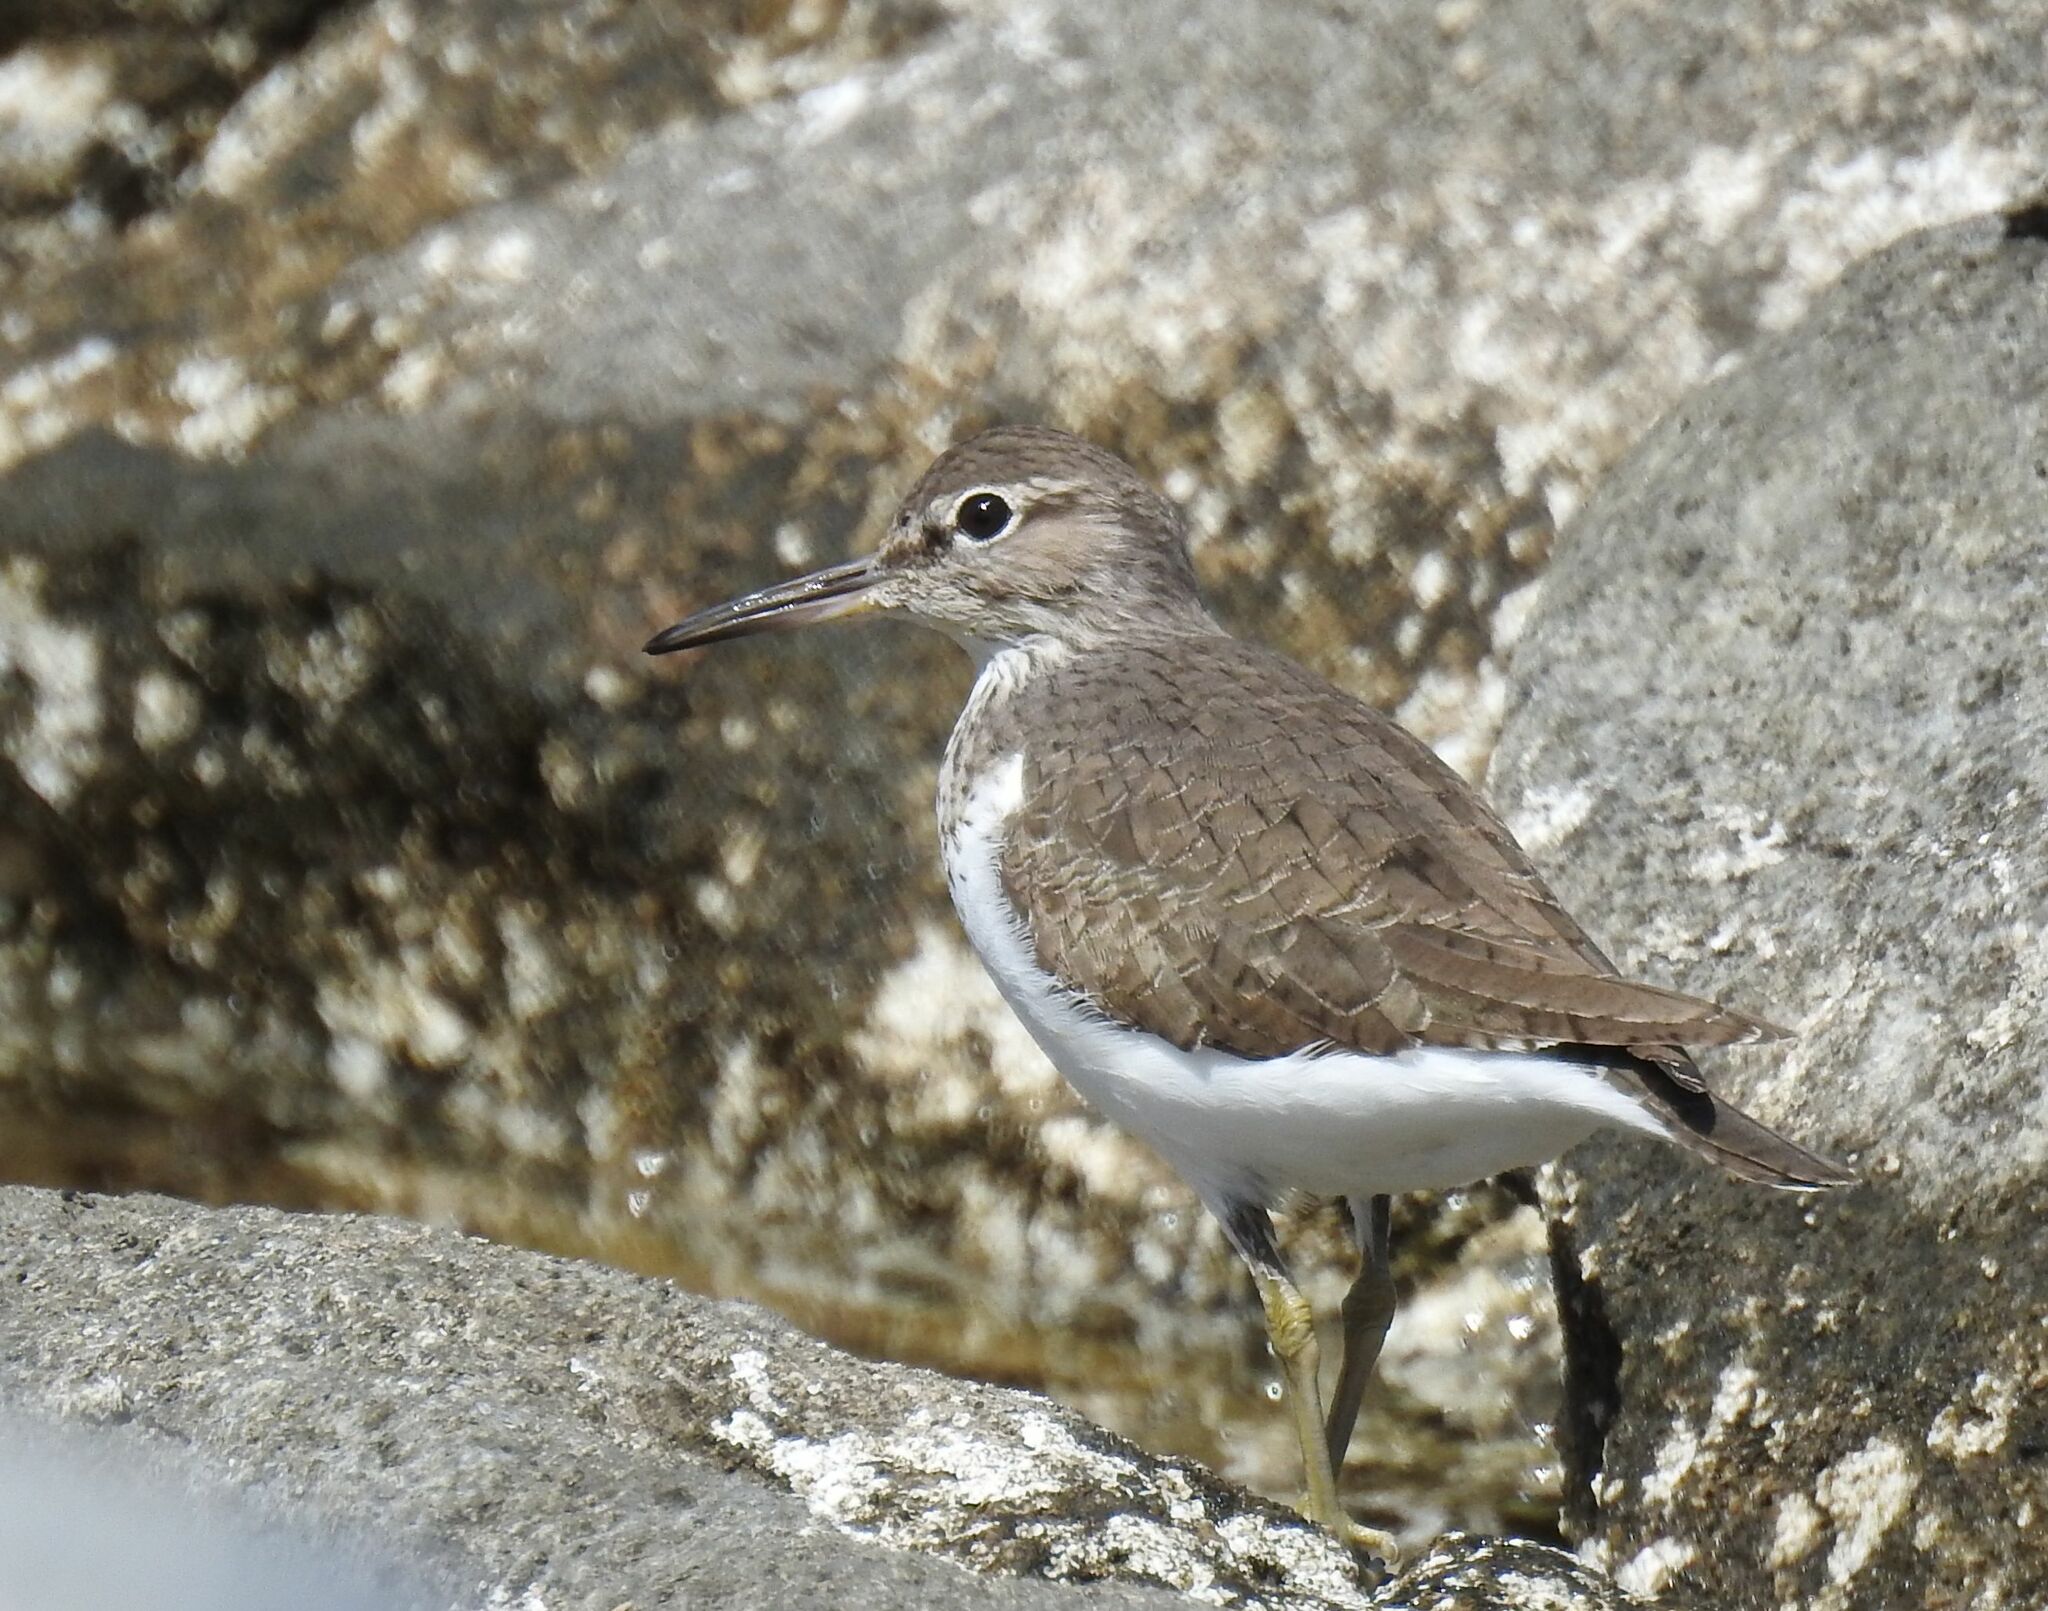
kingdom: Animalia
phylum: Chordata
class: Aves
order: Charadriiformes
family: Scolopacidae
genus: Actitis
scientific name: Actitis hypoleucos
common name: Common sandpiper
